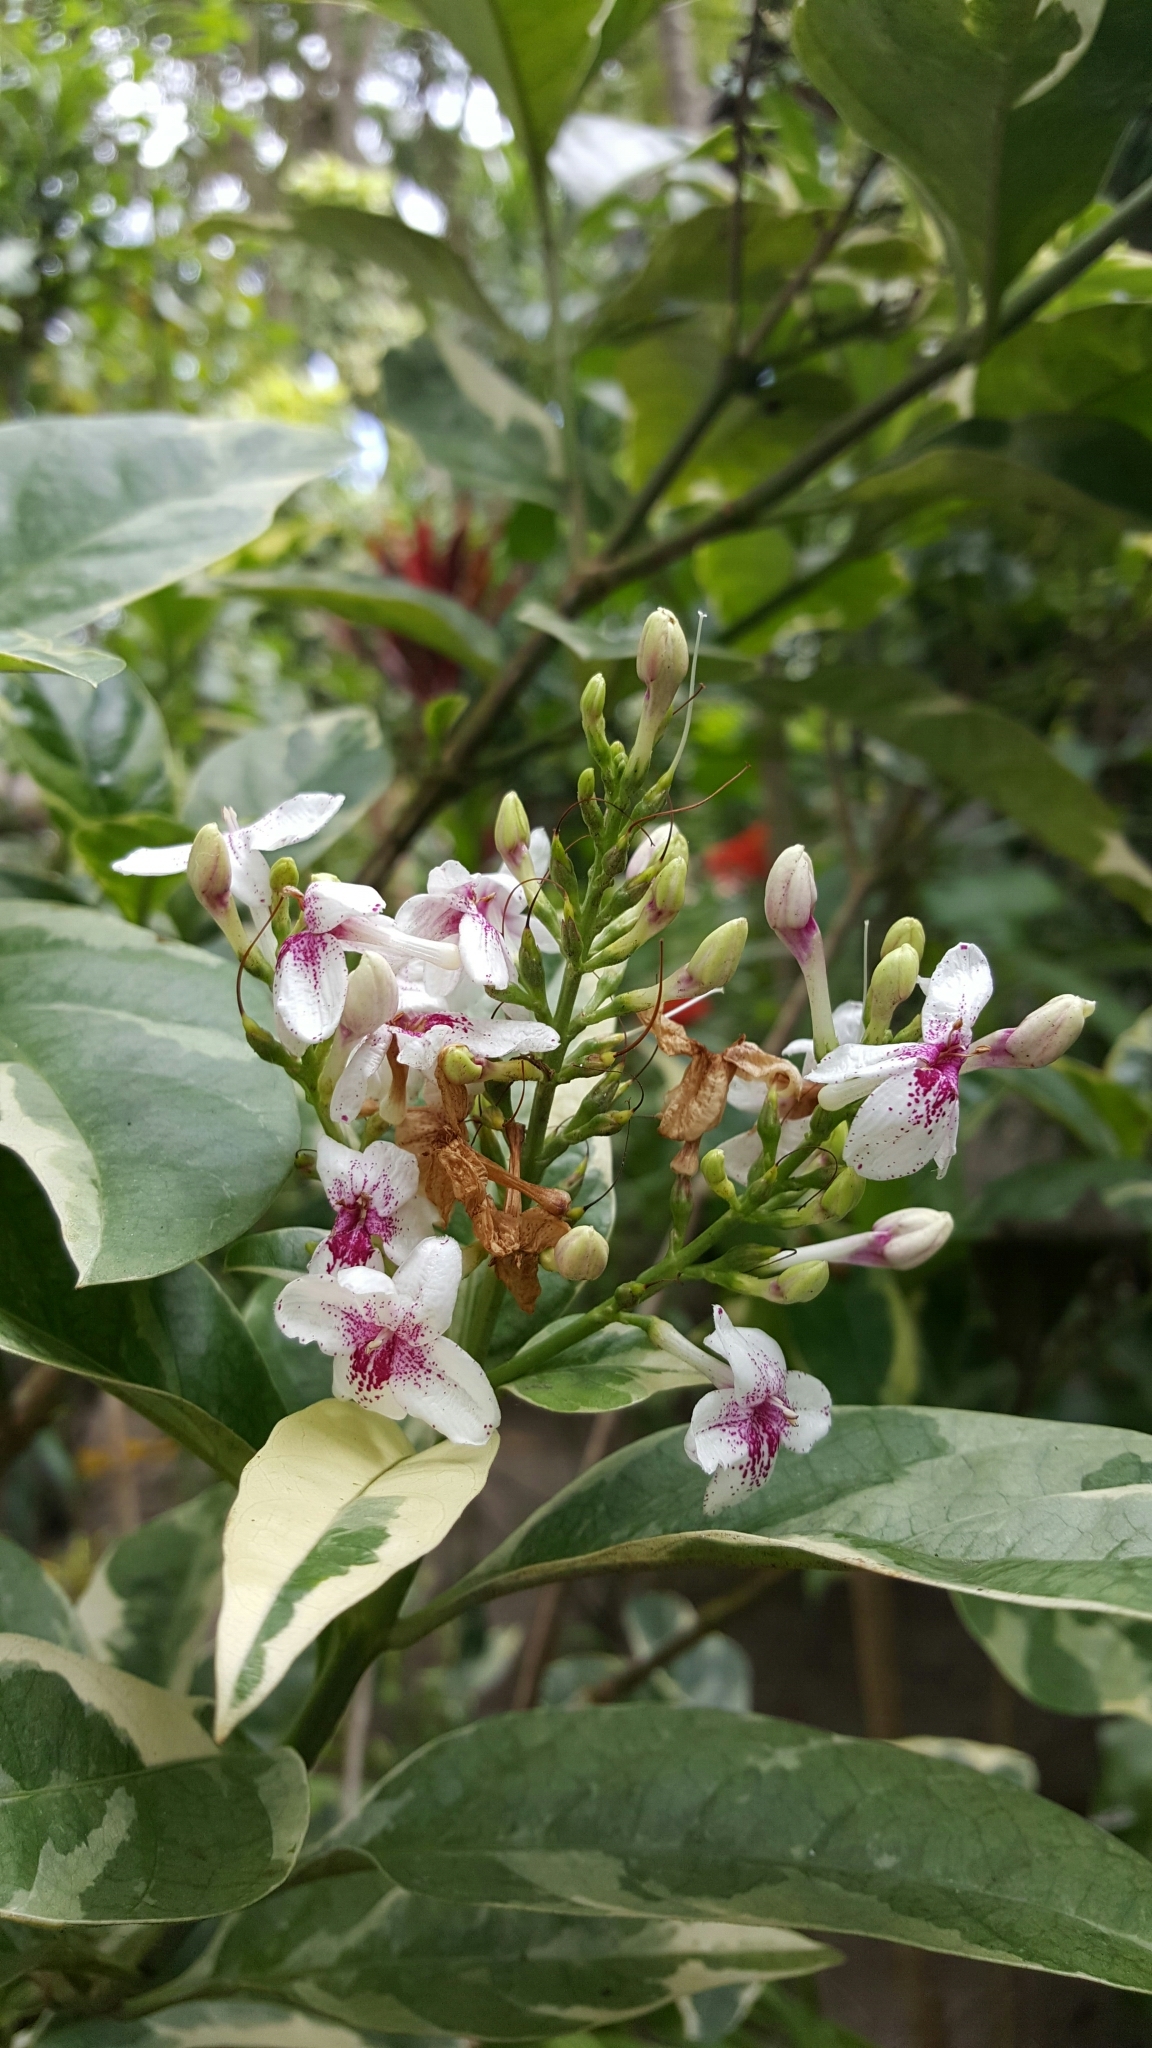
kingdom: Plantae
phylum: Tracheophyta
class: Magnoliopsida
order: Lamiales
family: Acanthaceae
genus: Pseuderanthemum
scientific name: Pseuderanthemum maculatum
